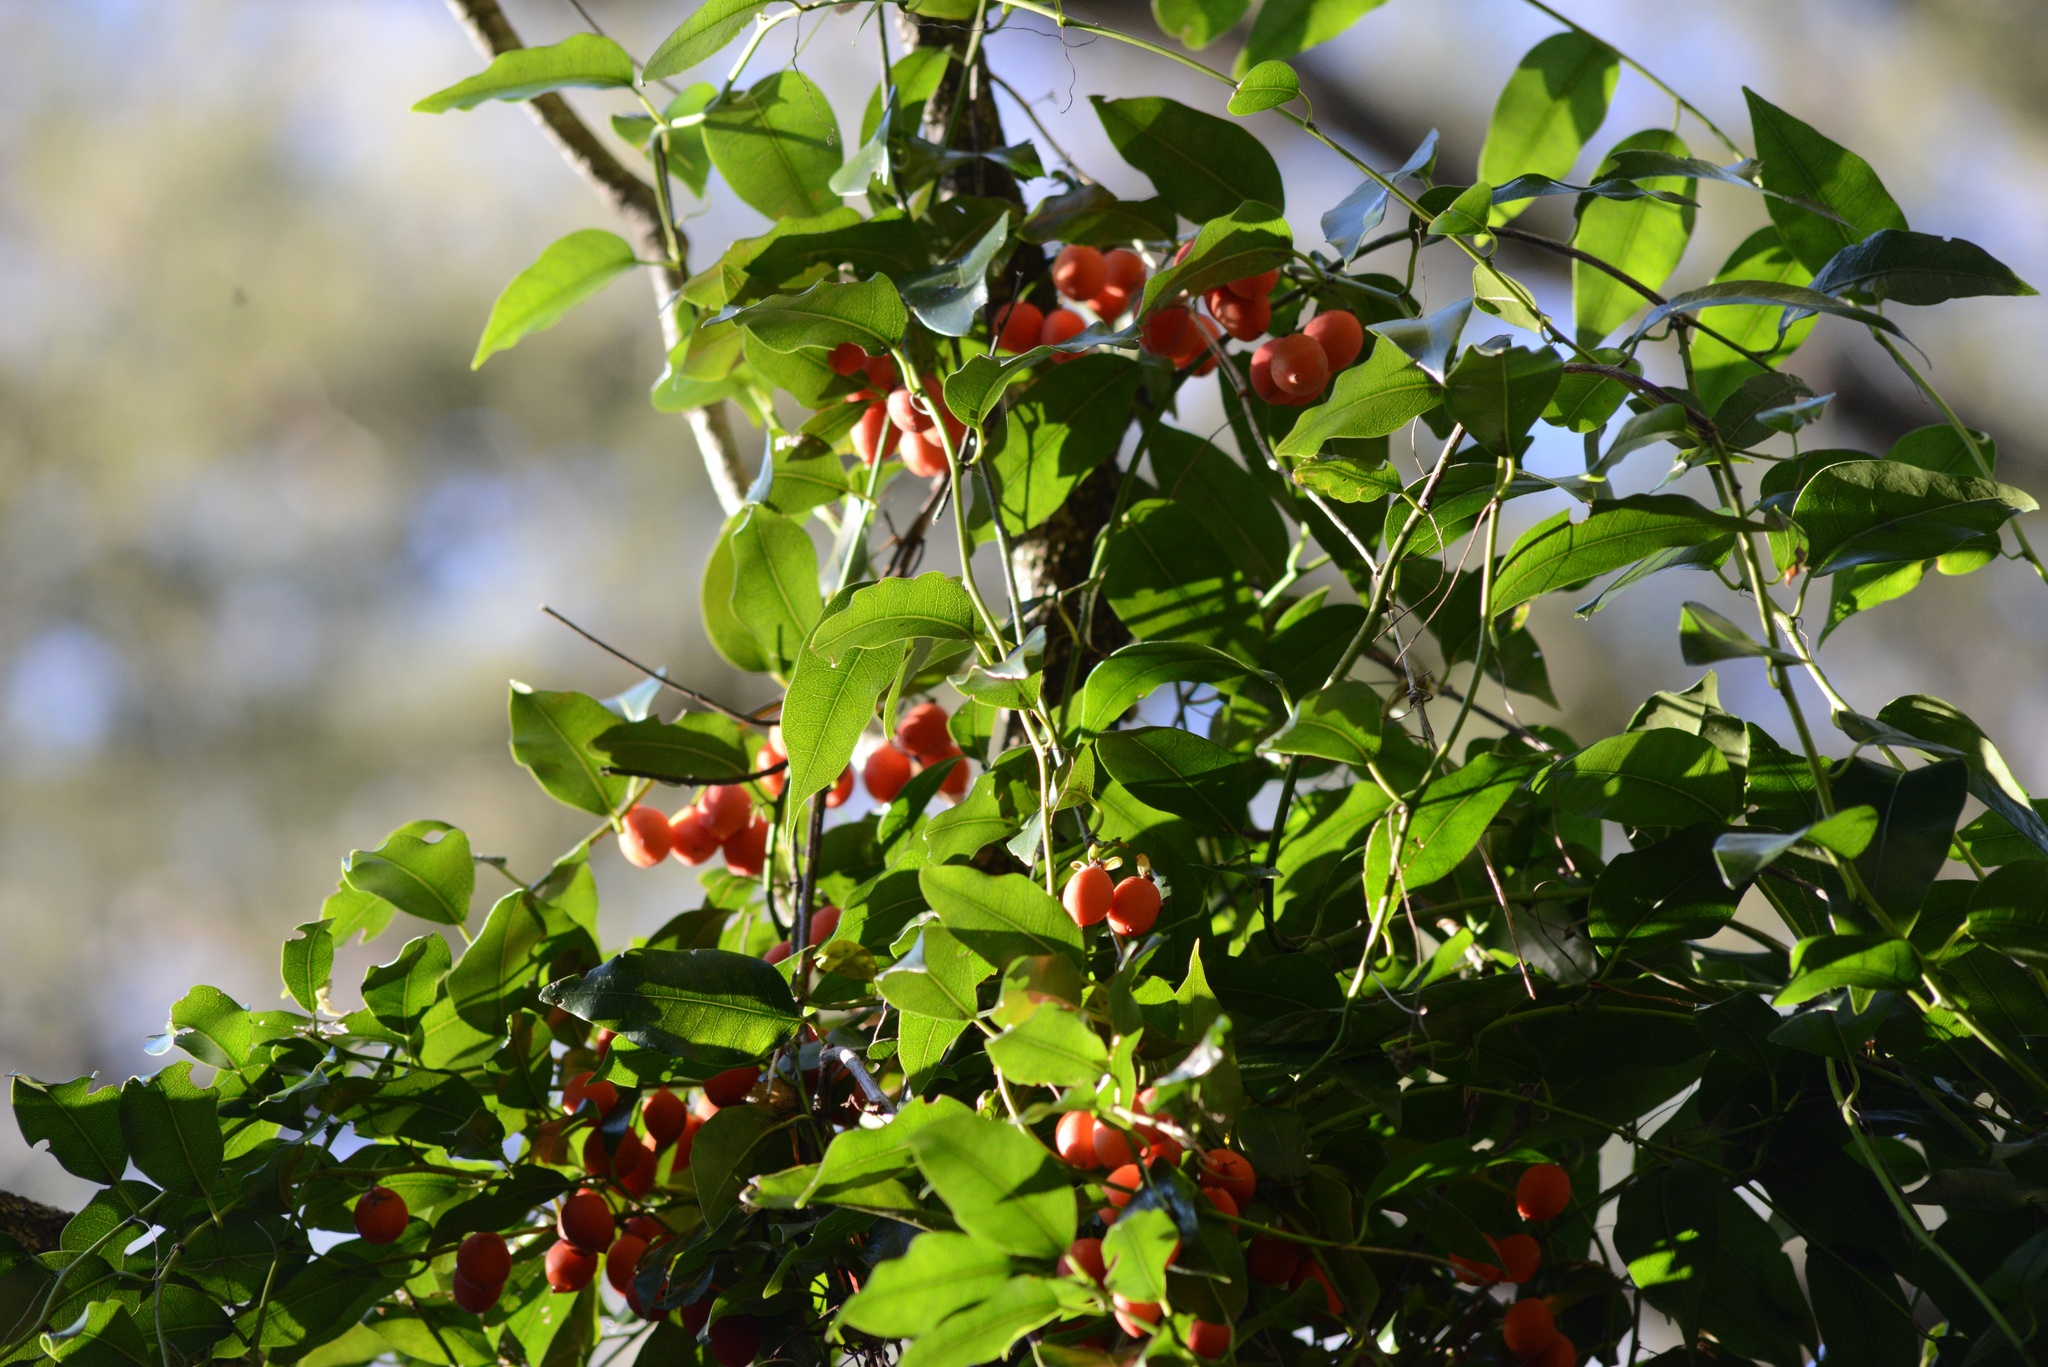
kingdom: Plantae
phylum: Tracheophyta
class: Magnoliopsida
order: Malpighiales
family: Passifloraceae
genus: Passiflora
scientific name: Passiflora tetrandra
